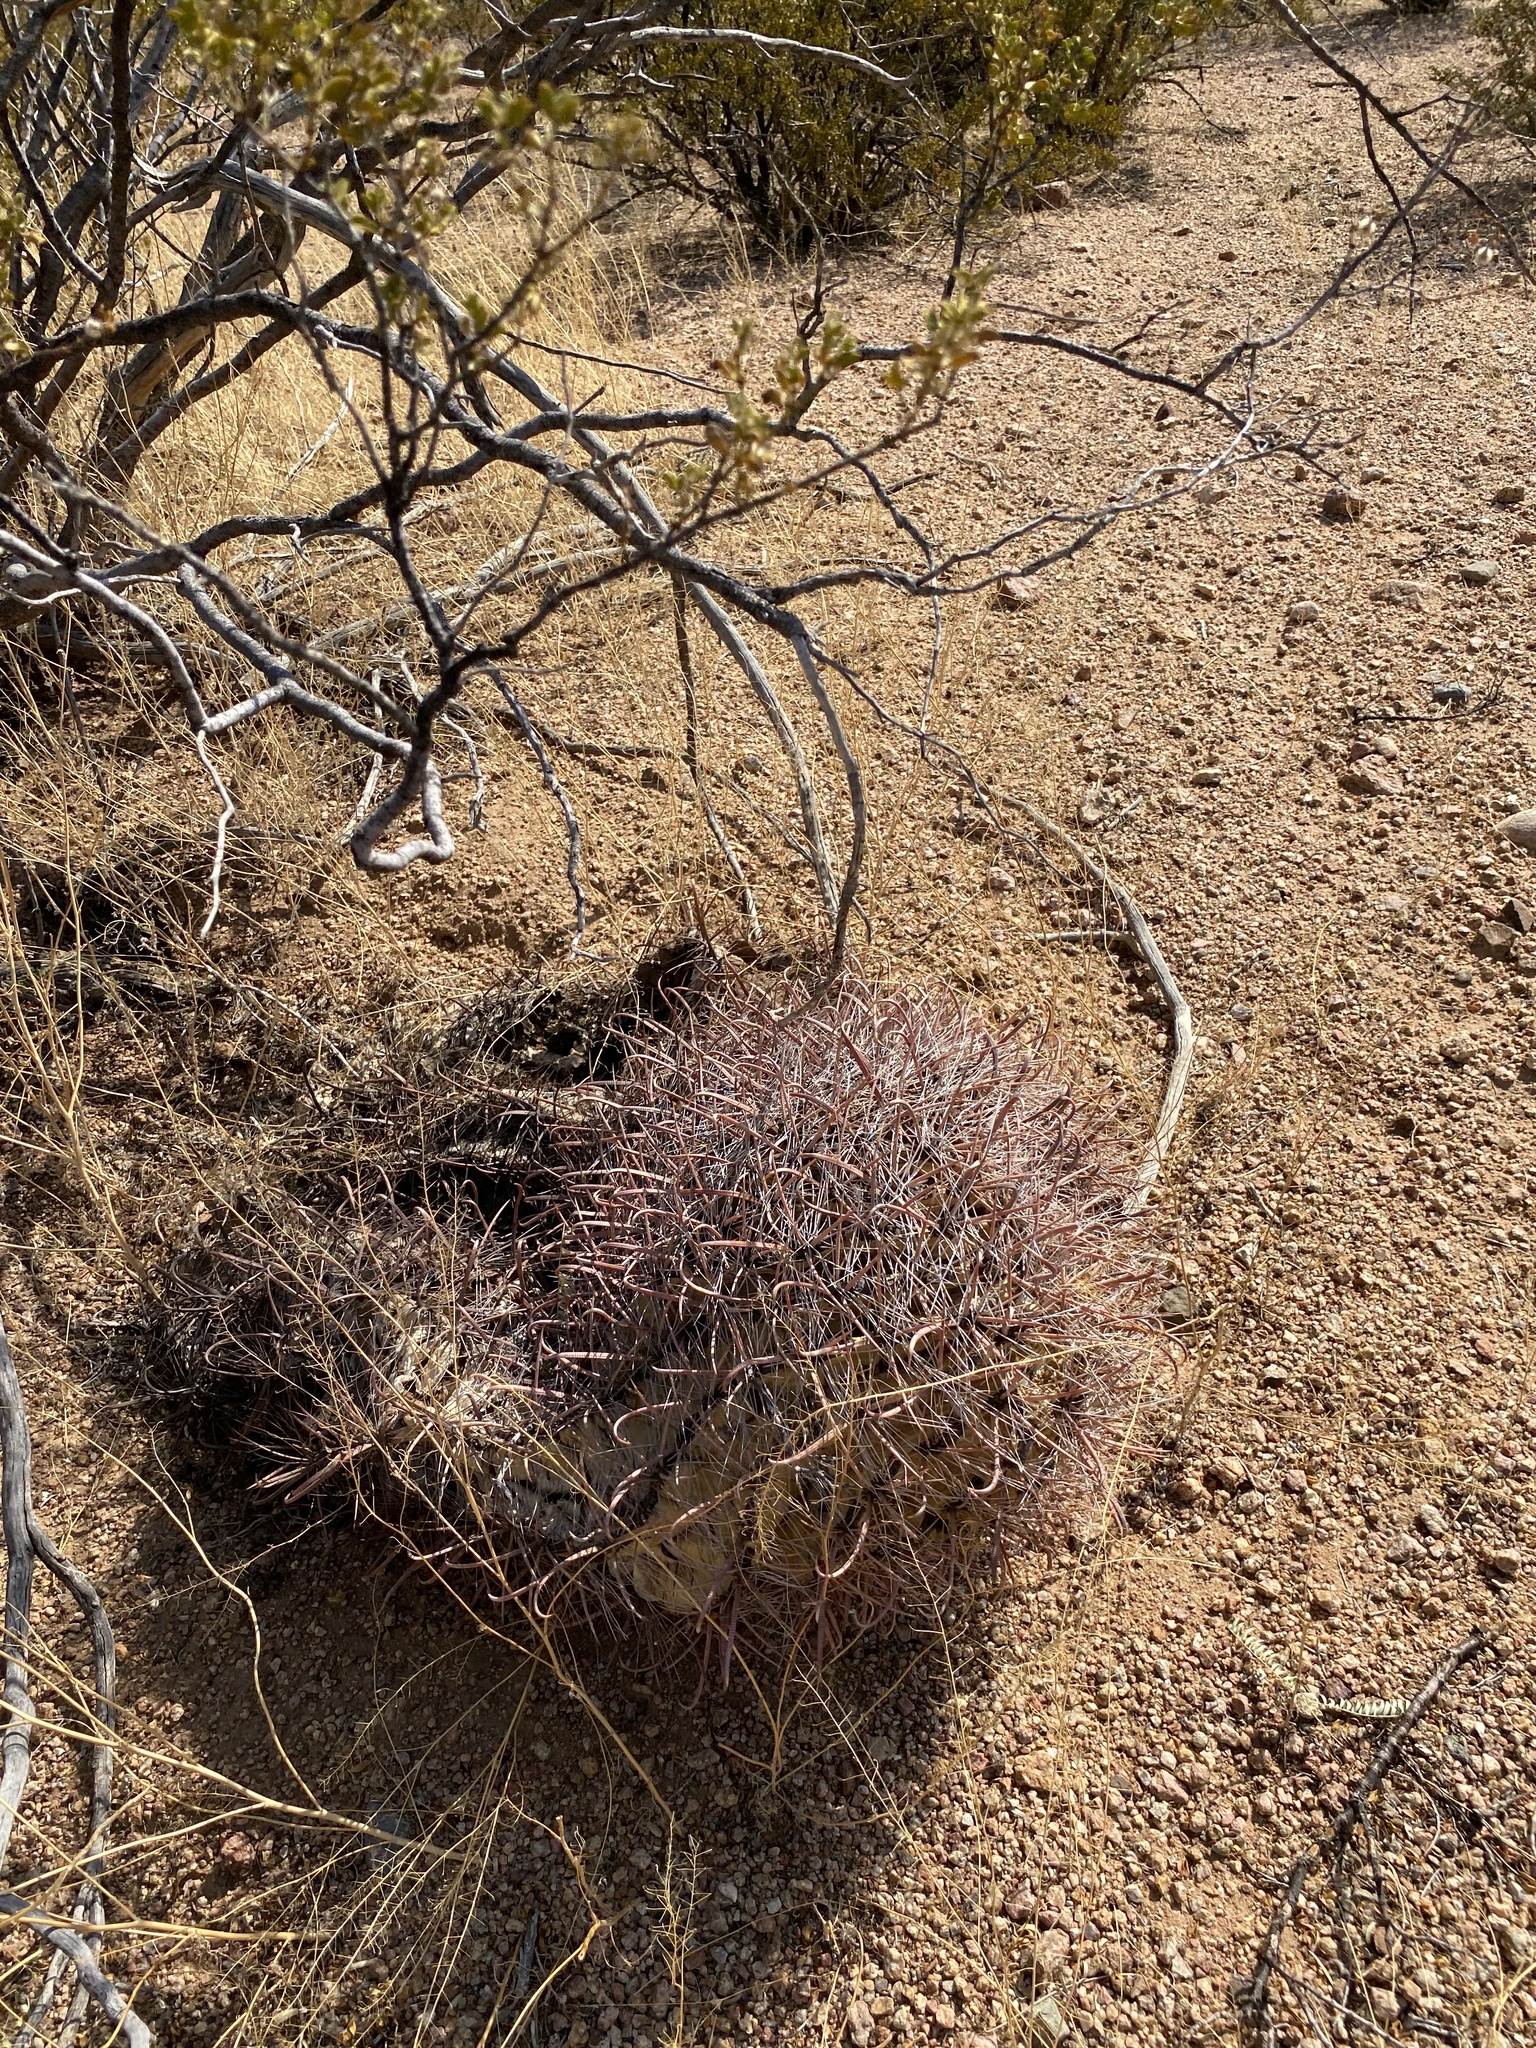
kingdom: Plantae
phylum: Tracheophyta
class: Magnoliopsida
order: Caryophyllales
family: Cactaceae
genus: Ferocactus
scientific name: Ferocactus wislizeni
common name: Candy barrel cactus
